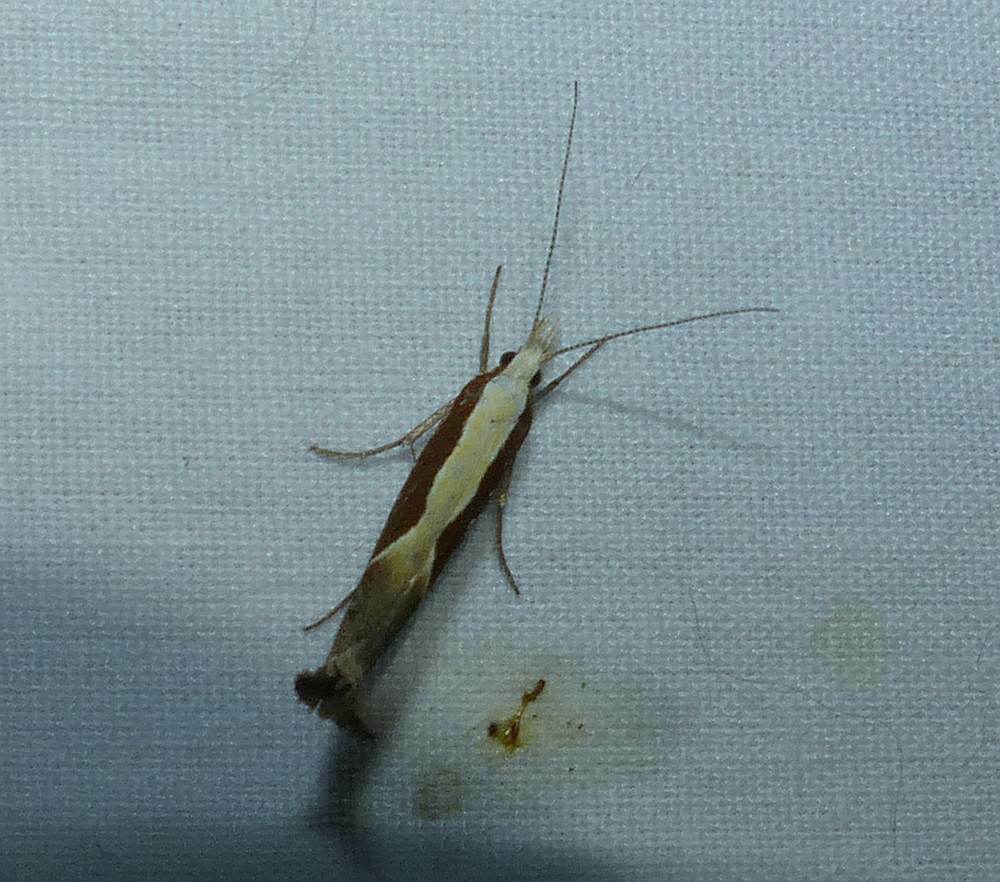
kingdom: Animalia
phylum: Arthropoda
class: Insecta
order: Lepidoptera
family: Ypsolophidae
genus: Ypsolopha
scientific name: Ypsolopha dentella
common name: Honeysuckle moth
